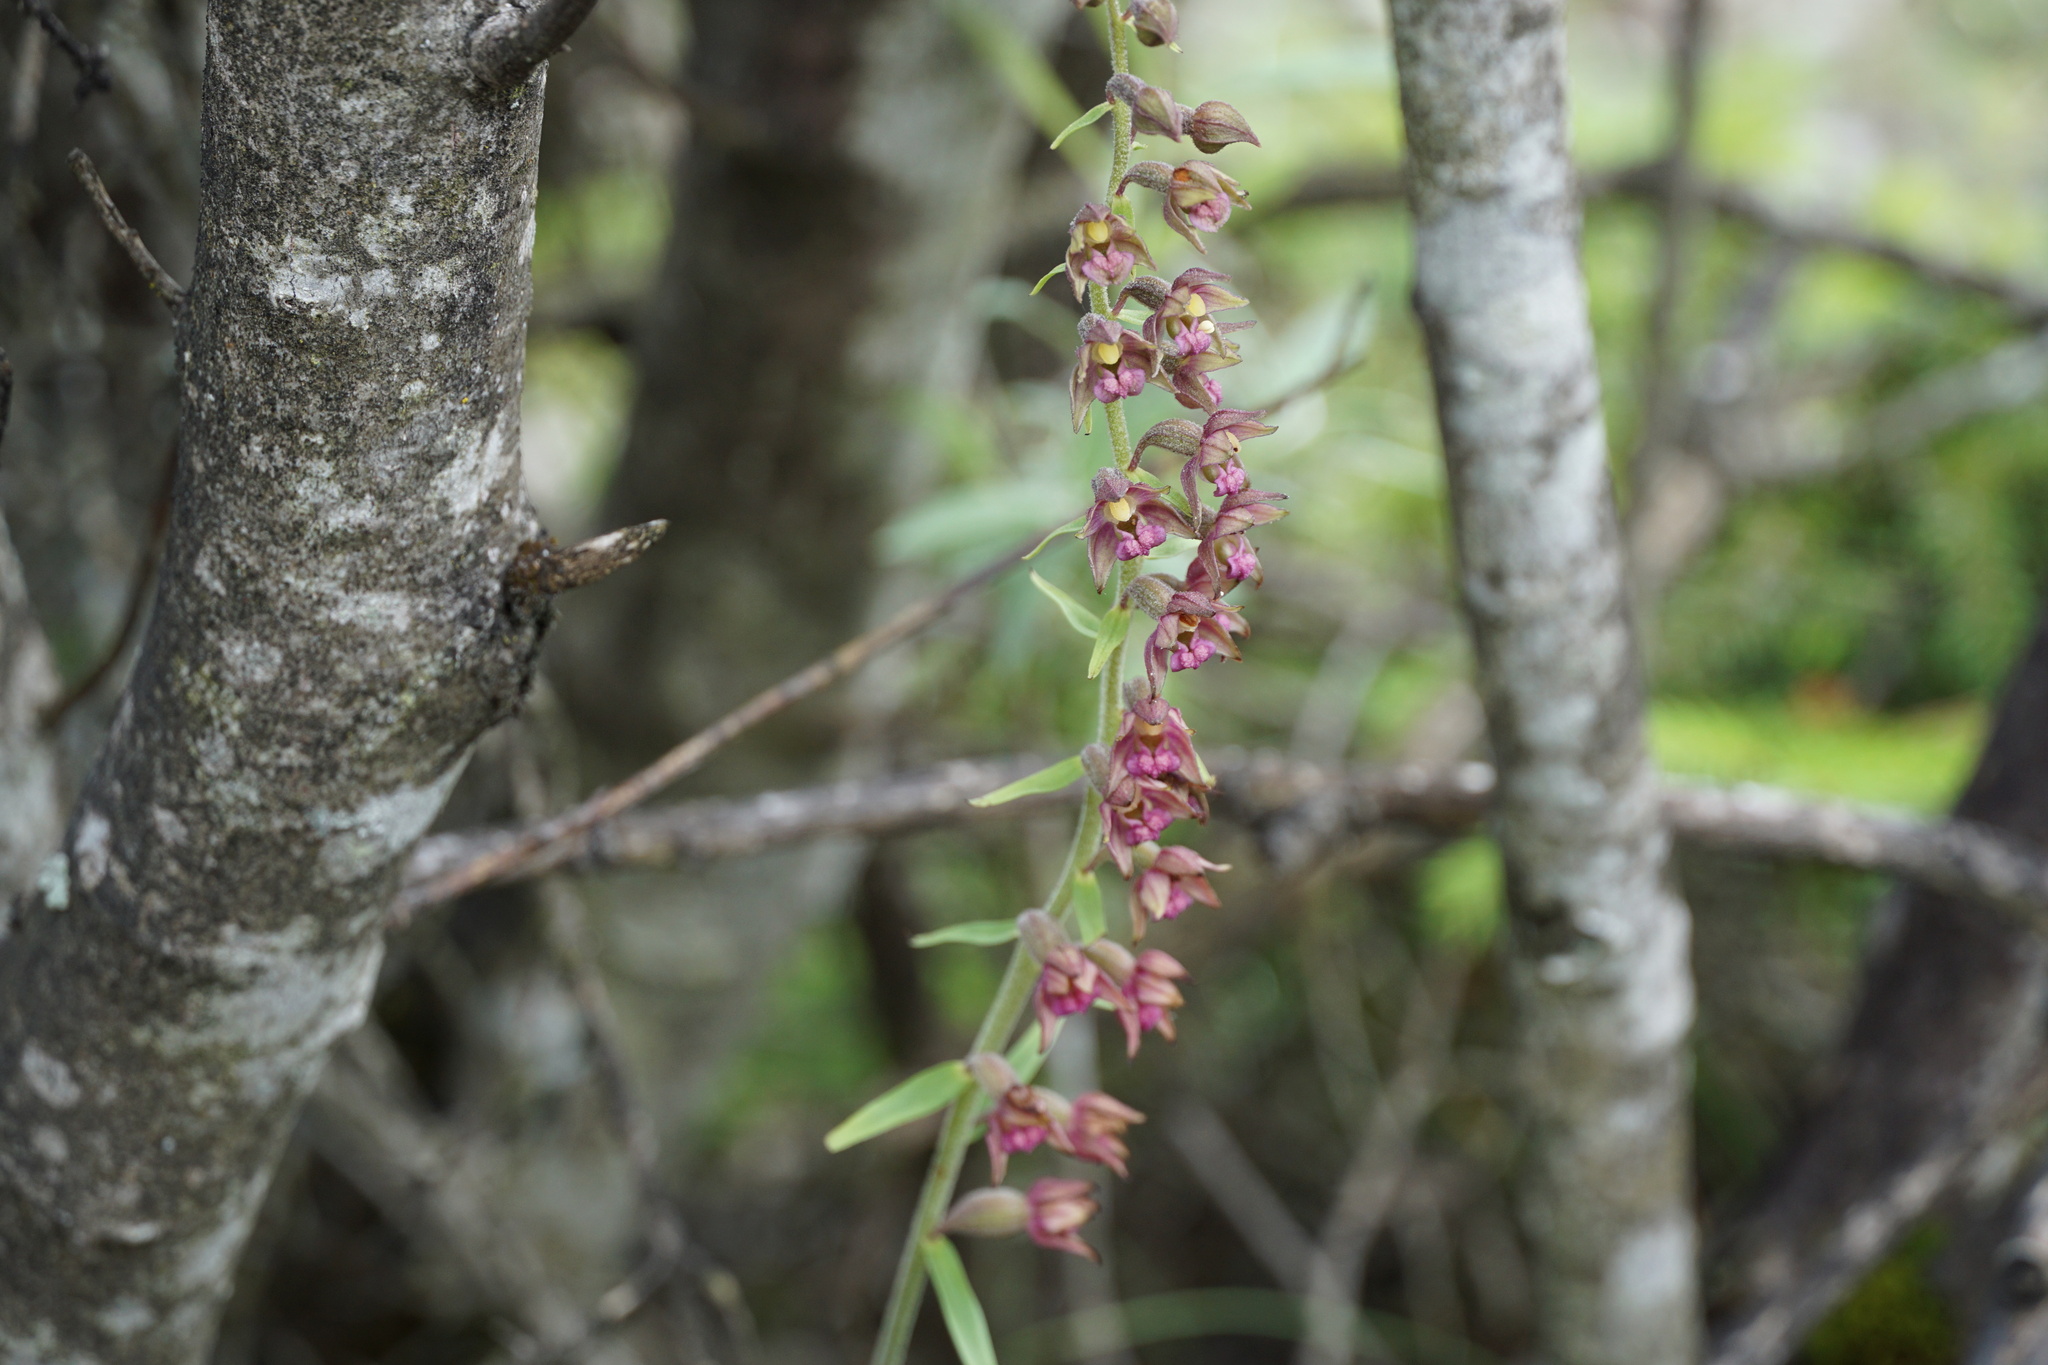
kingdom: Plantae
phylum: Tracheophyta
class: Liliopsida
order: Asparagales
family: Orchidaceae
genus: Epipactis
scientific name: Epipactis atrorubens
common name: Dark-red helleborine
